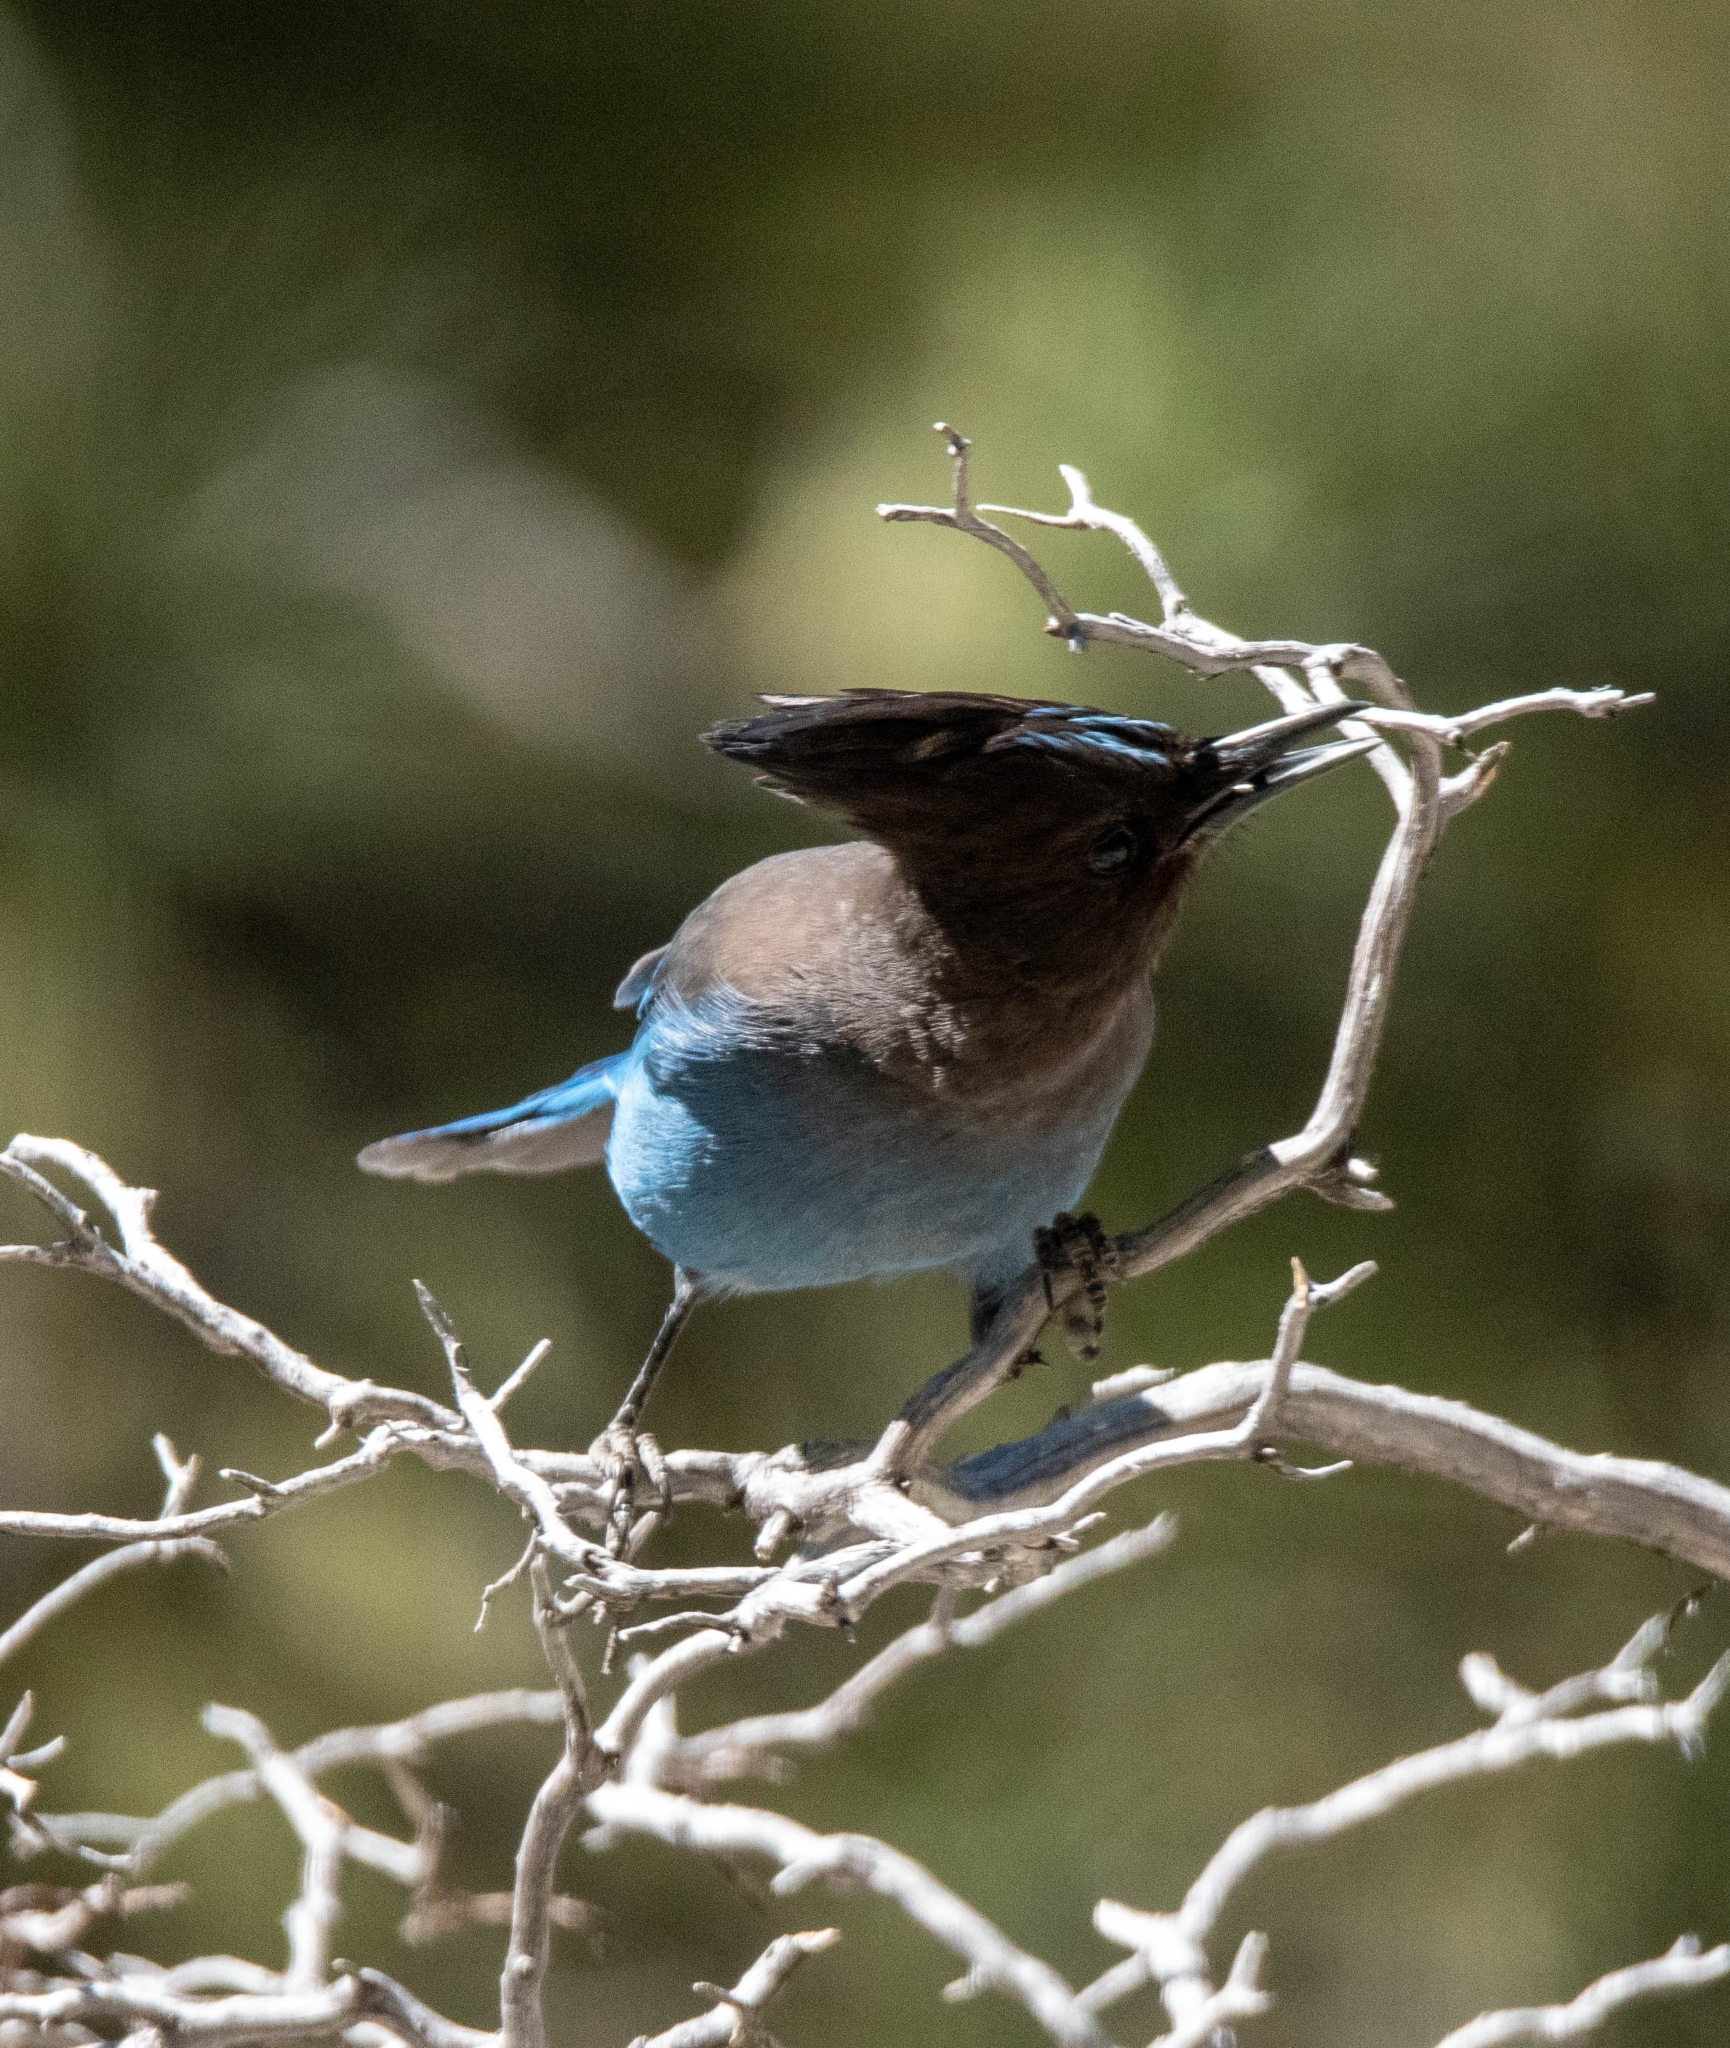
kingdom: Animalia
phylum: Chordata
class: Aves
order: Passeriformes
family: Corvidae
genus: Cyanocitta
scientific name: Cyanocitta stelleri
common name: Steller's jay
